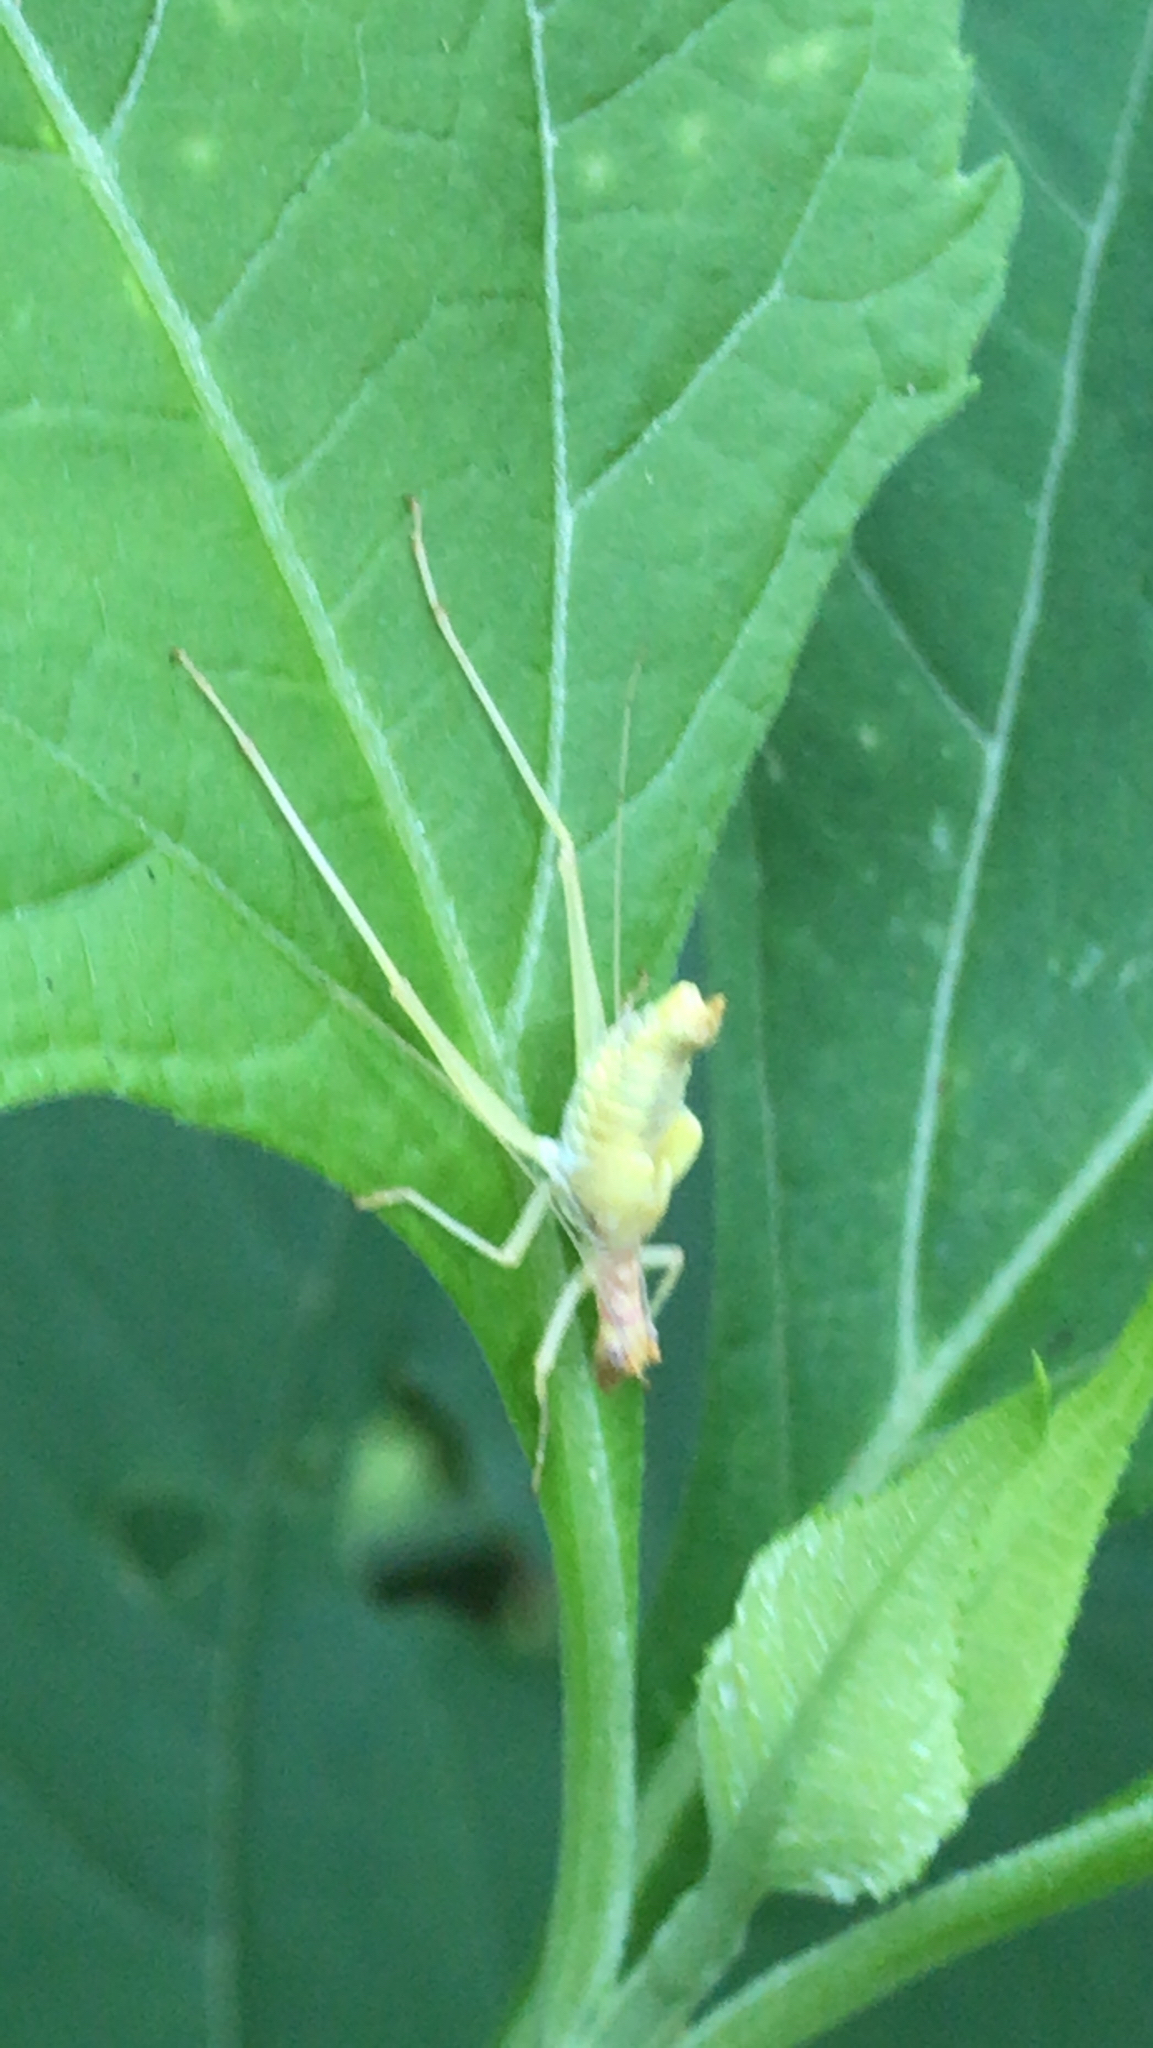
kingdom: Animalia
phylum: Arthropoda
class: Insecta
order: Orthoptera
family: Gryllidae
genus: Neoxabea
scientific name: Neoxabea bipunctata
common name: Two-spotted tree cricket
